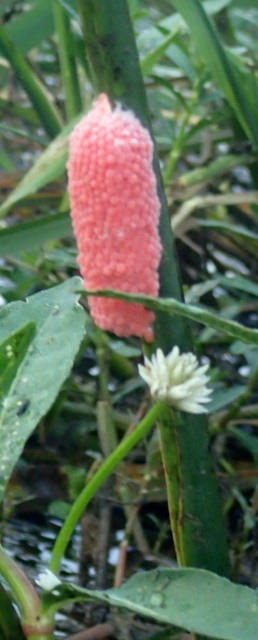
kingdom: Animalia
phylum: Mollusca
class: Gastropoda
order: Architaenioglossa
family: Ampullariidae
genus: Pomacea
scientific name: Pomacea maculata
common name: Giant applesnail
